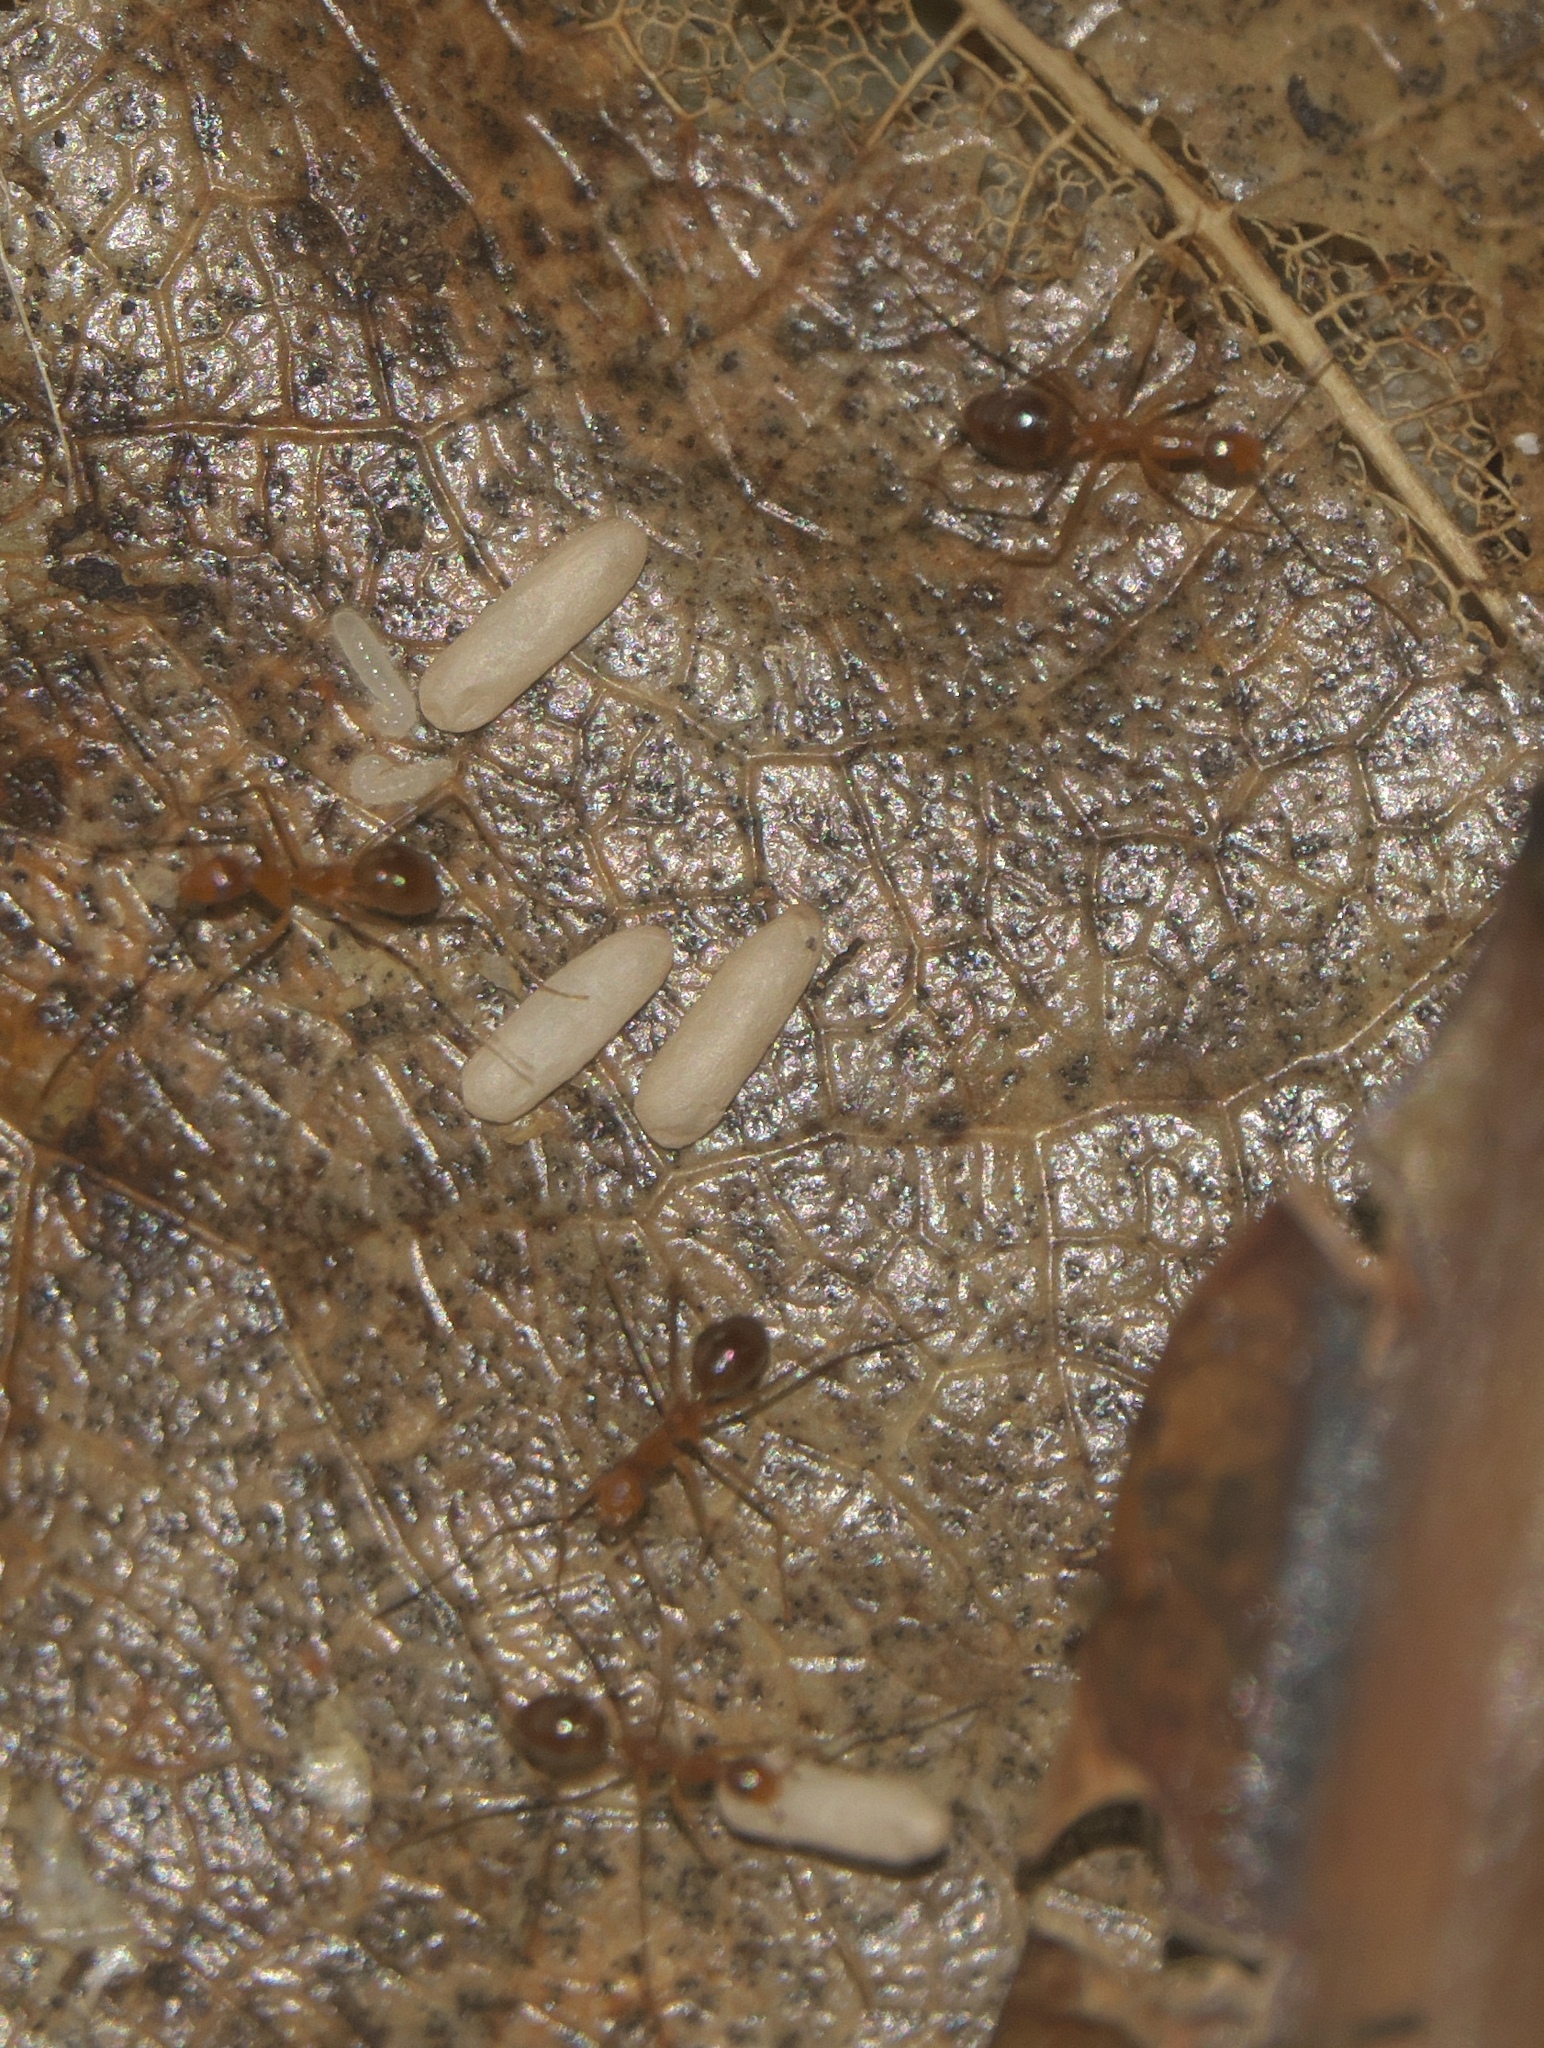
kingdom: Animalia
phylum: Arthropoda
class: Insecta
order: Hymenoptera
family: Formicidae
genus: Anoplolepis
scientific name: Anoplolepis gracilipes
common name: Ant
